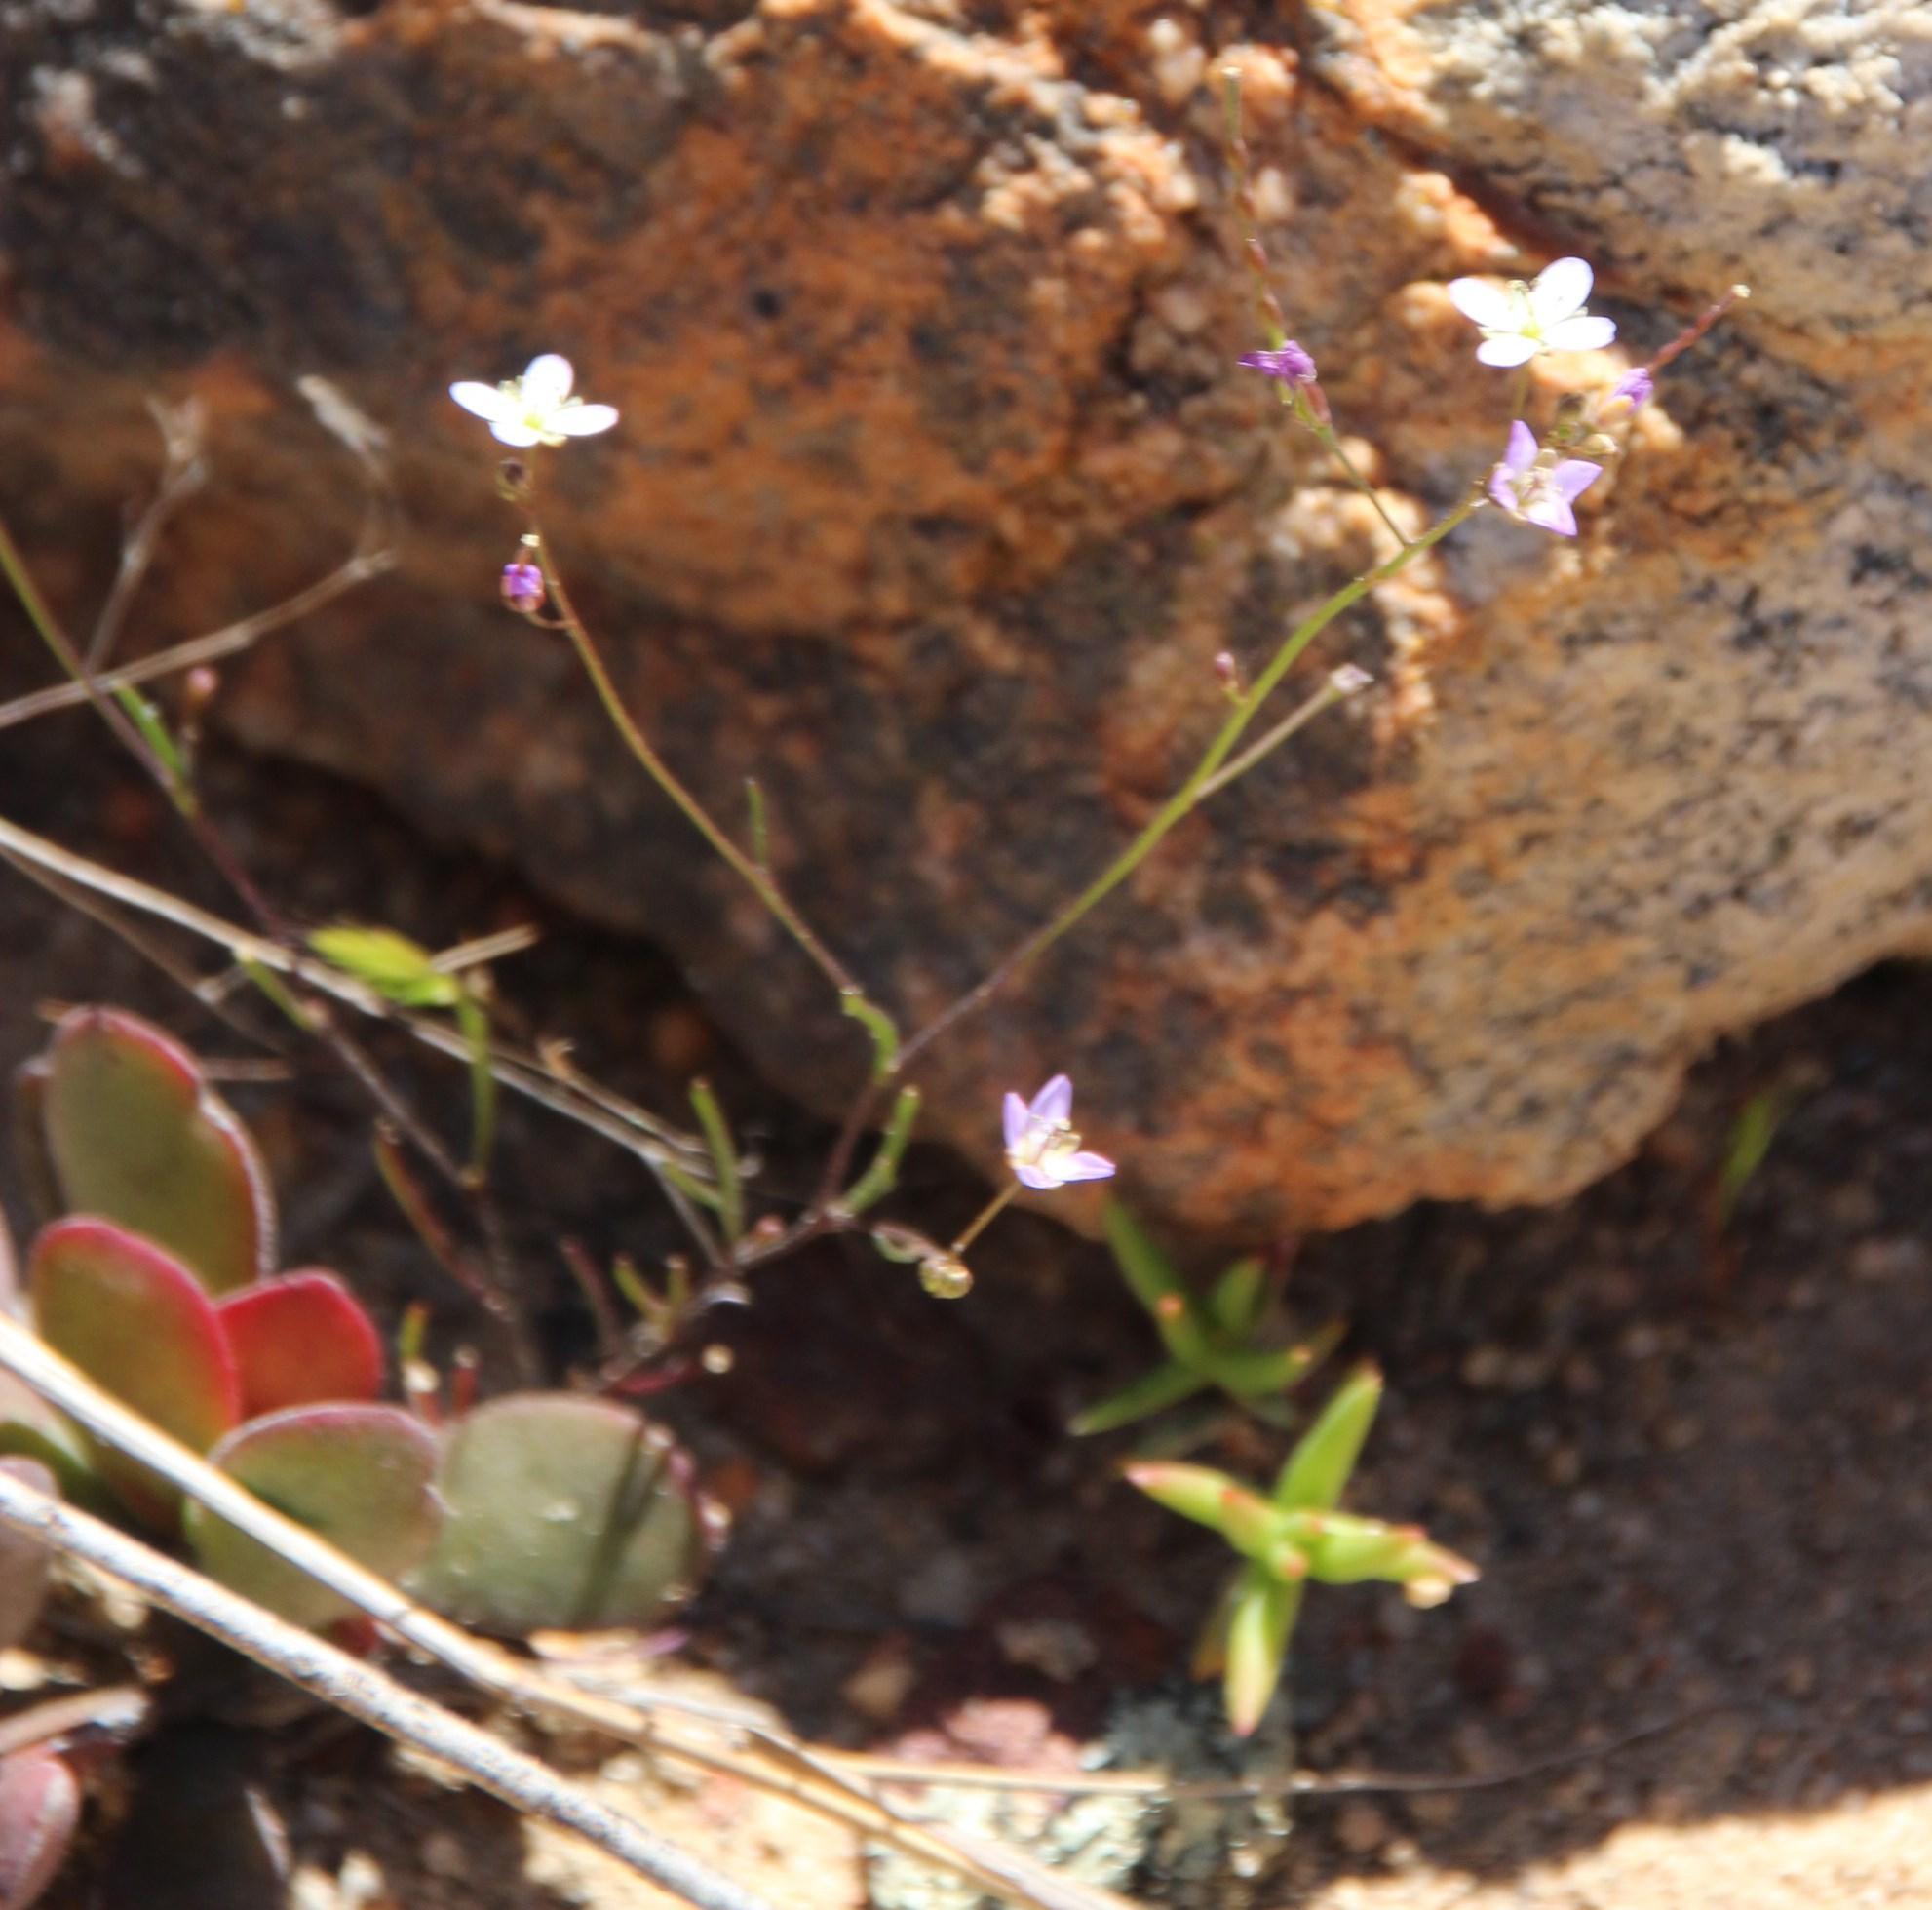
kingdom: Plantae
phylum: Tracheophyta
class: Magnoliopsida
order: Brassicales
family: Brassicaceae
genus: Heliophila
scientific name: Heliophila pinnata
